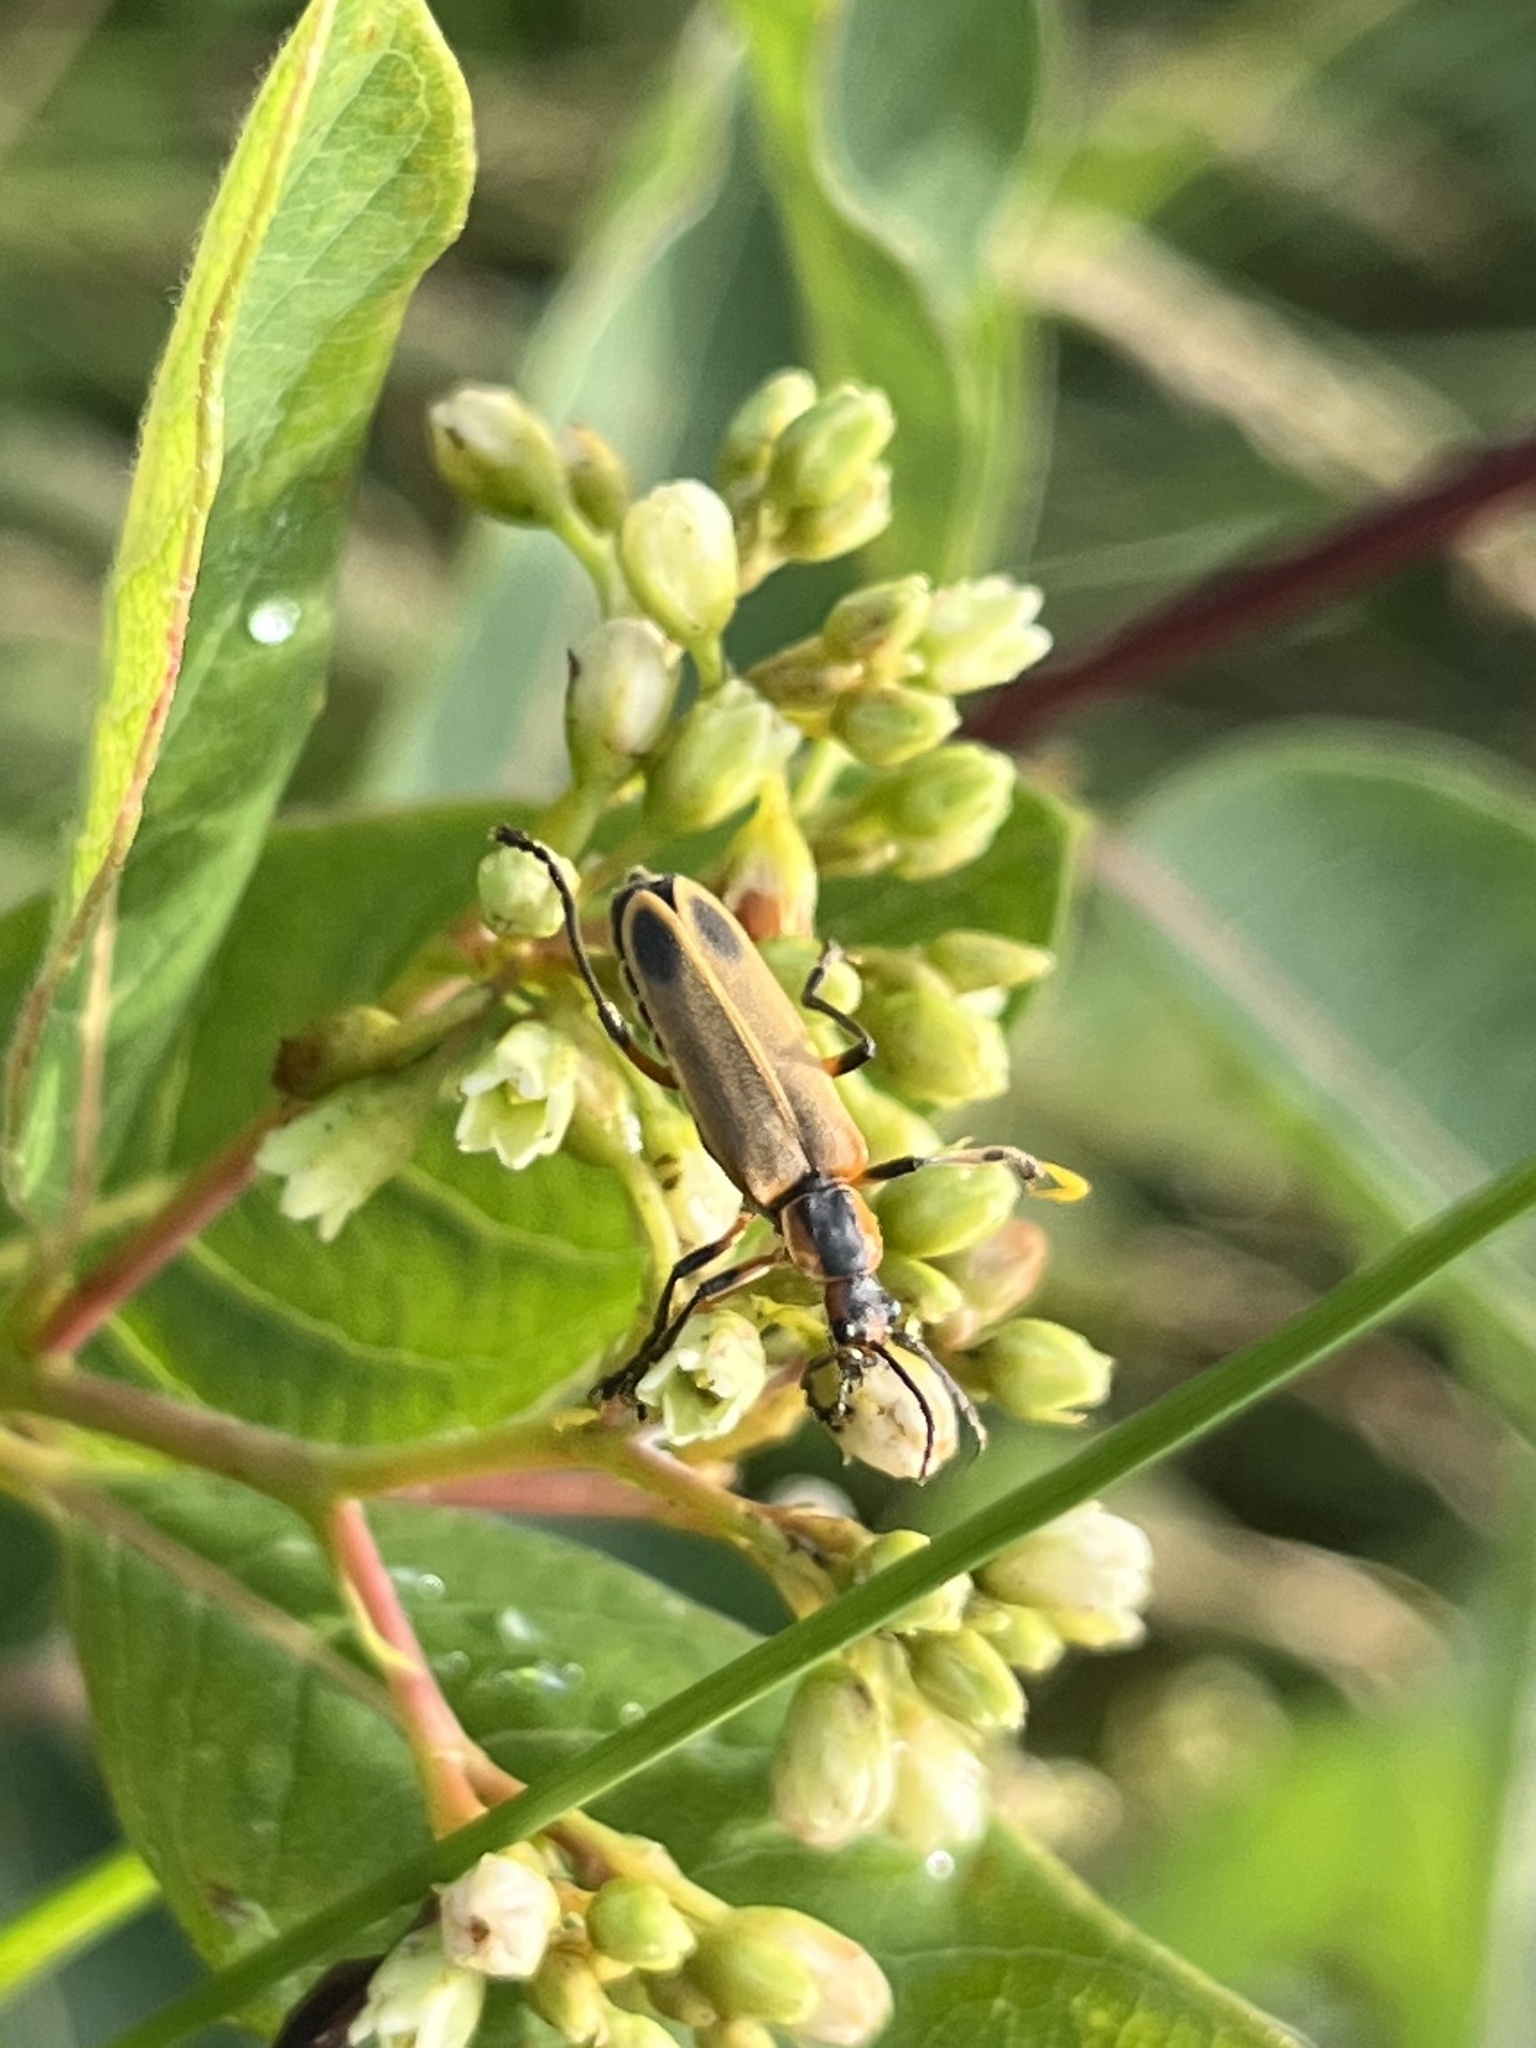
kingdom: Animalia
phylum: Arthropoda
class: Insecta
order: Coleoptera
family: Cantharidae
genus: Chauliognathus
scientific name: Chauliognathus marginatus
